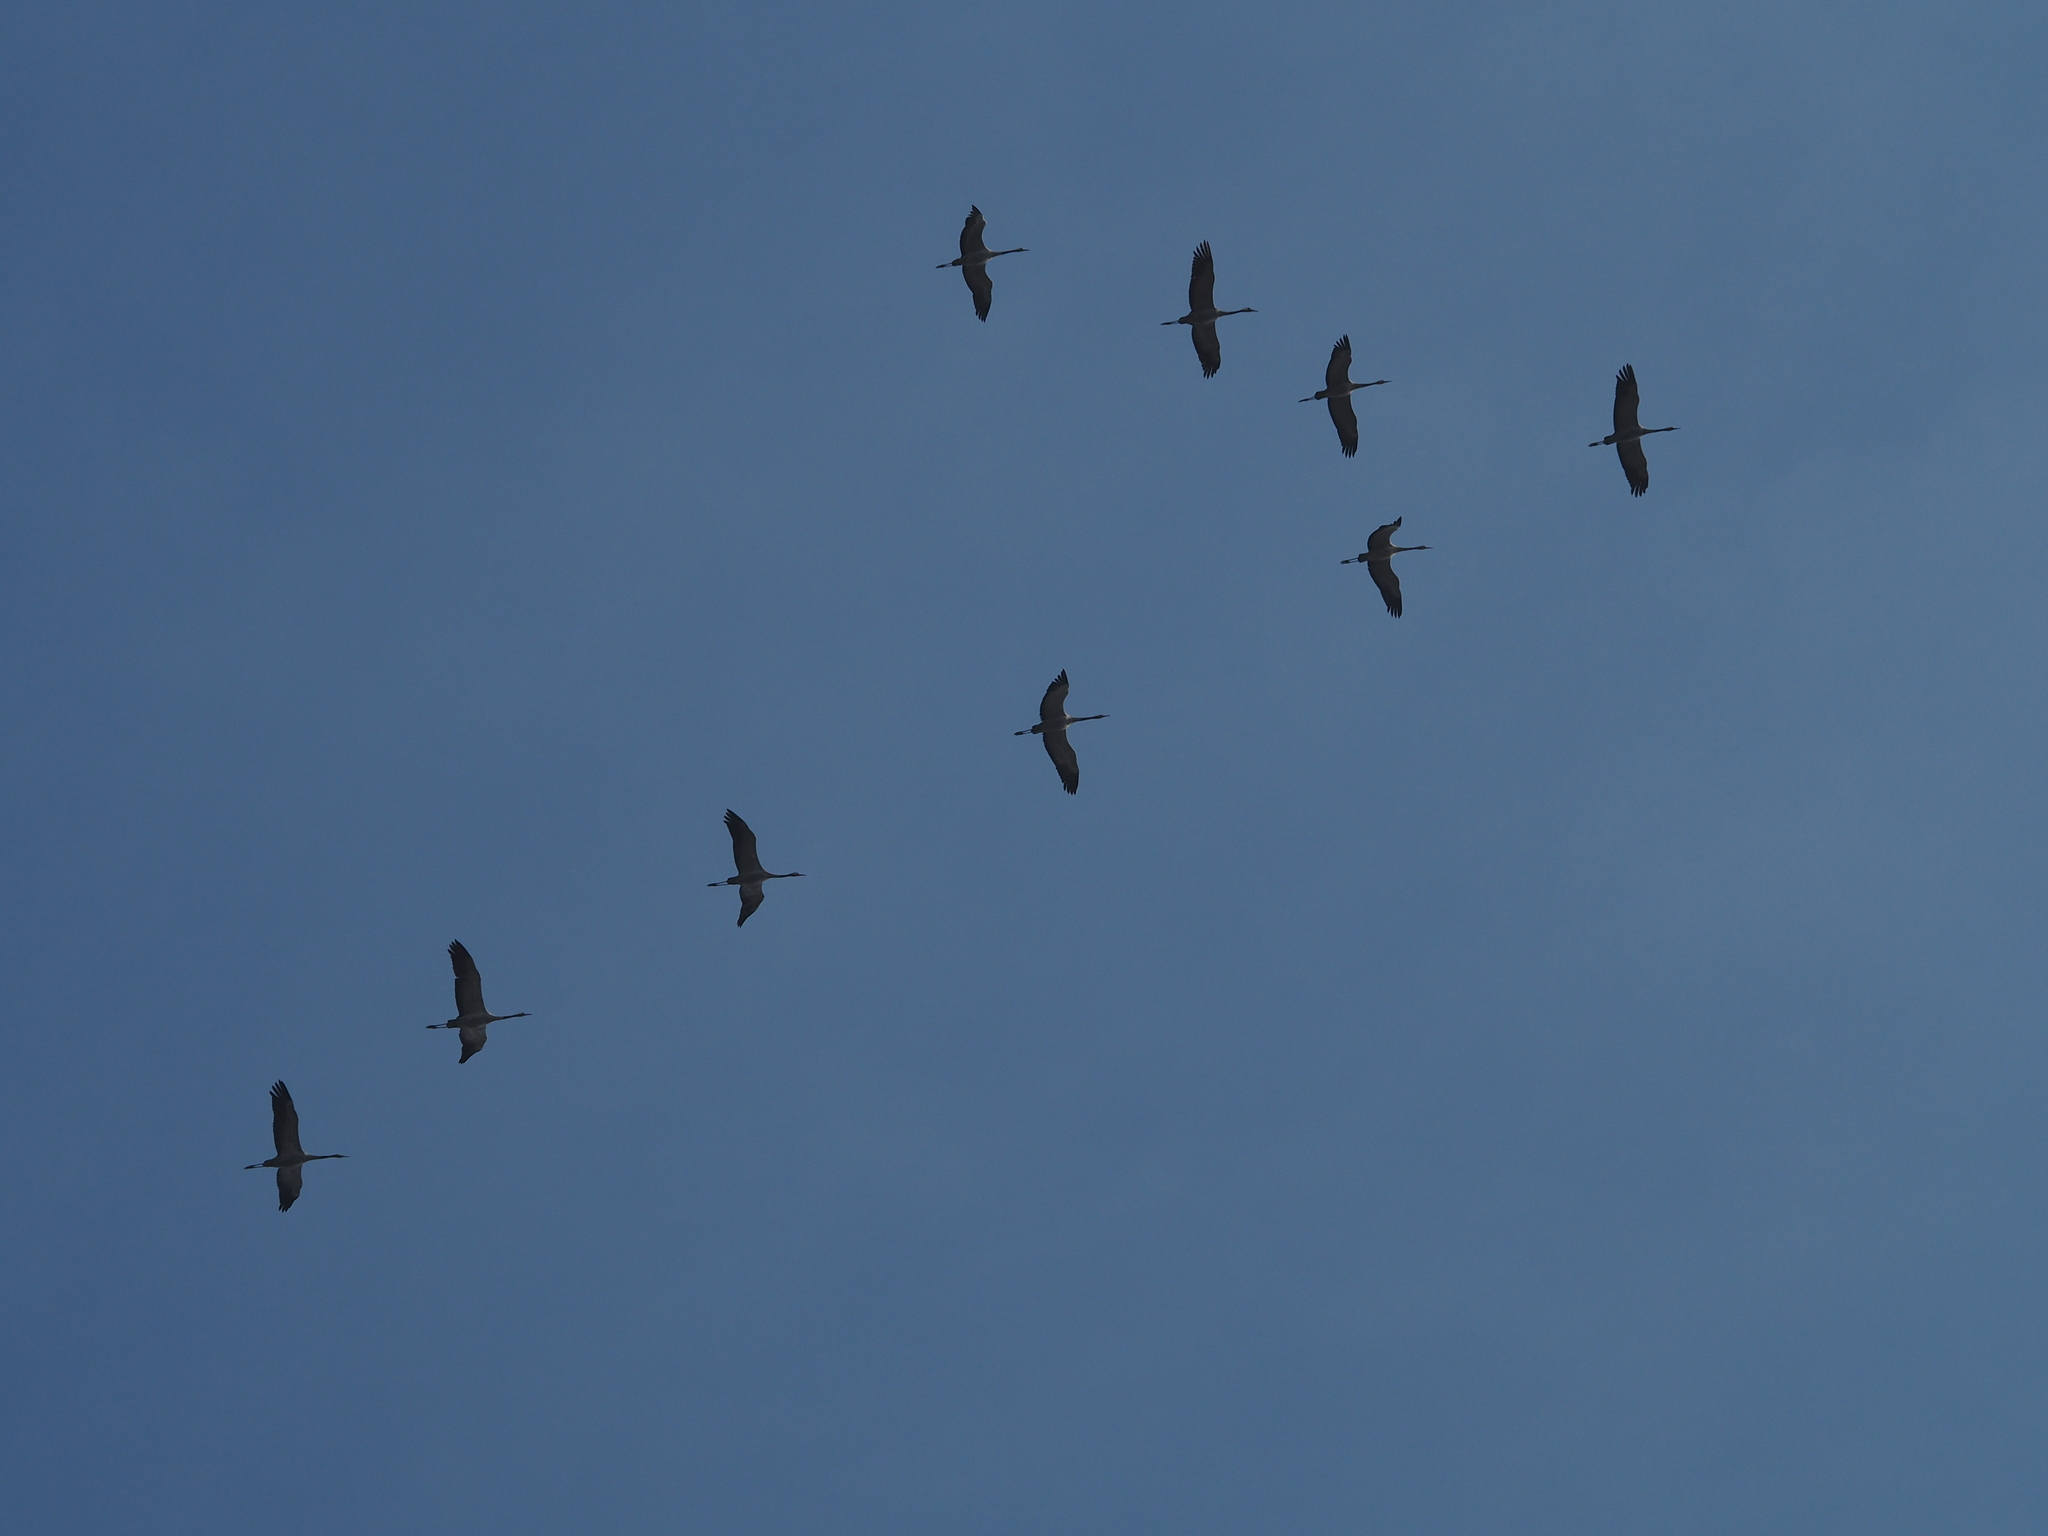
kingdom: Animalia
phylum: Chordata
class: Aves
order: Gruiformes
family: Gruidae
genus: Grus
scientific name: Grus grus
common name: Common crane
